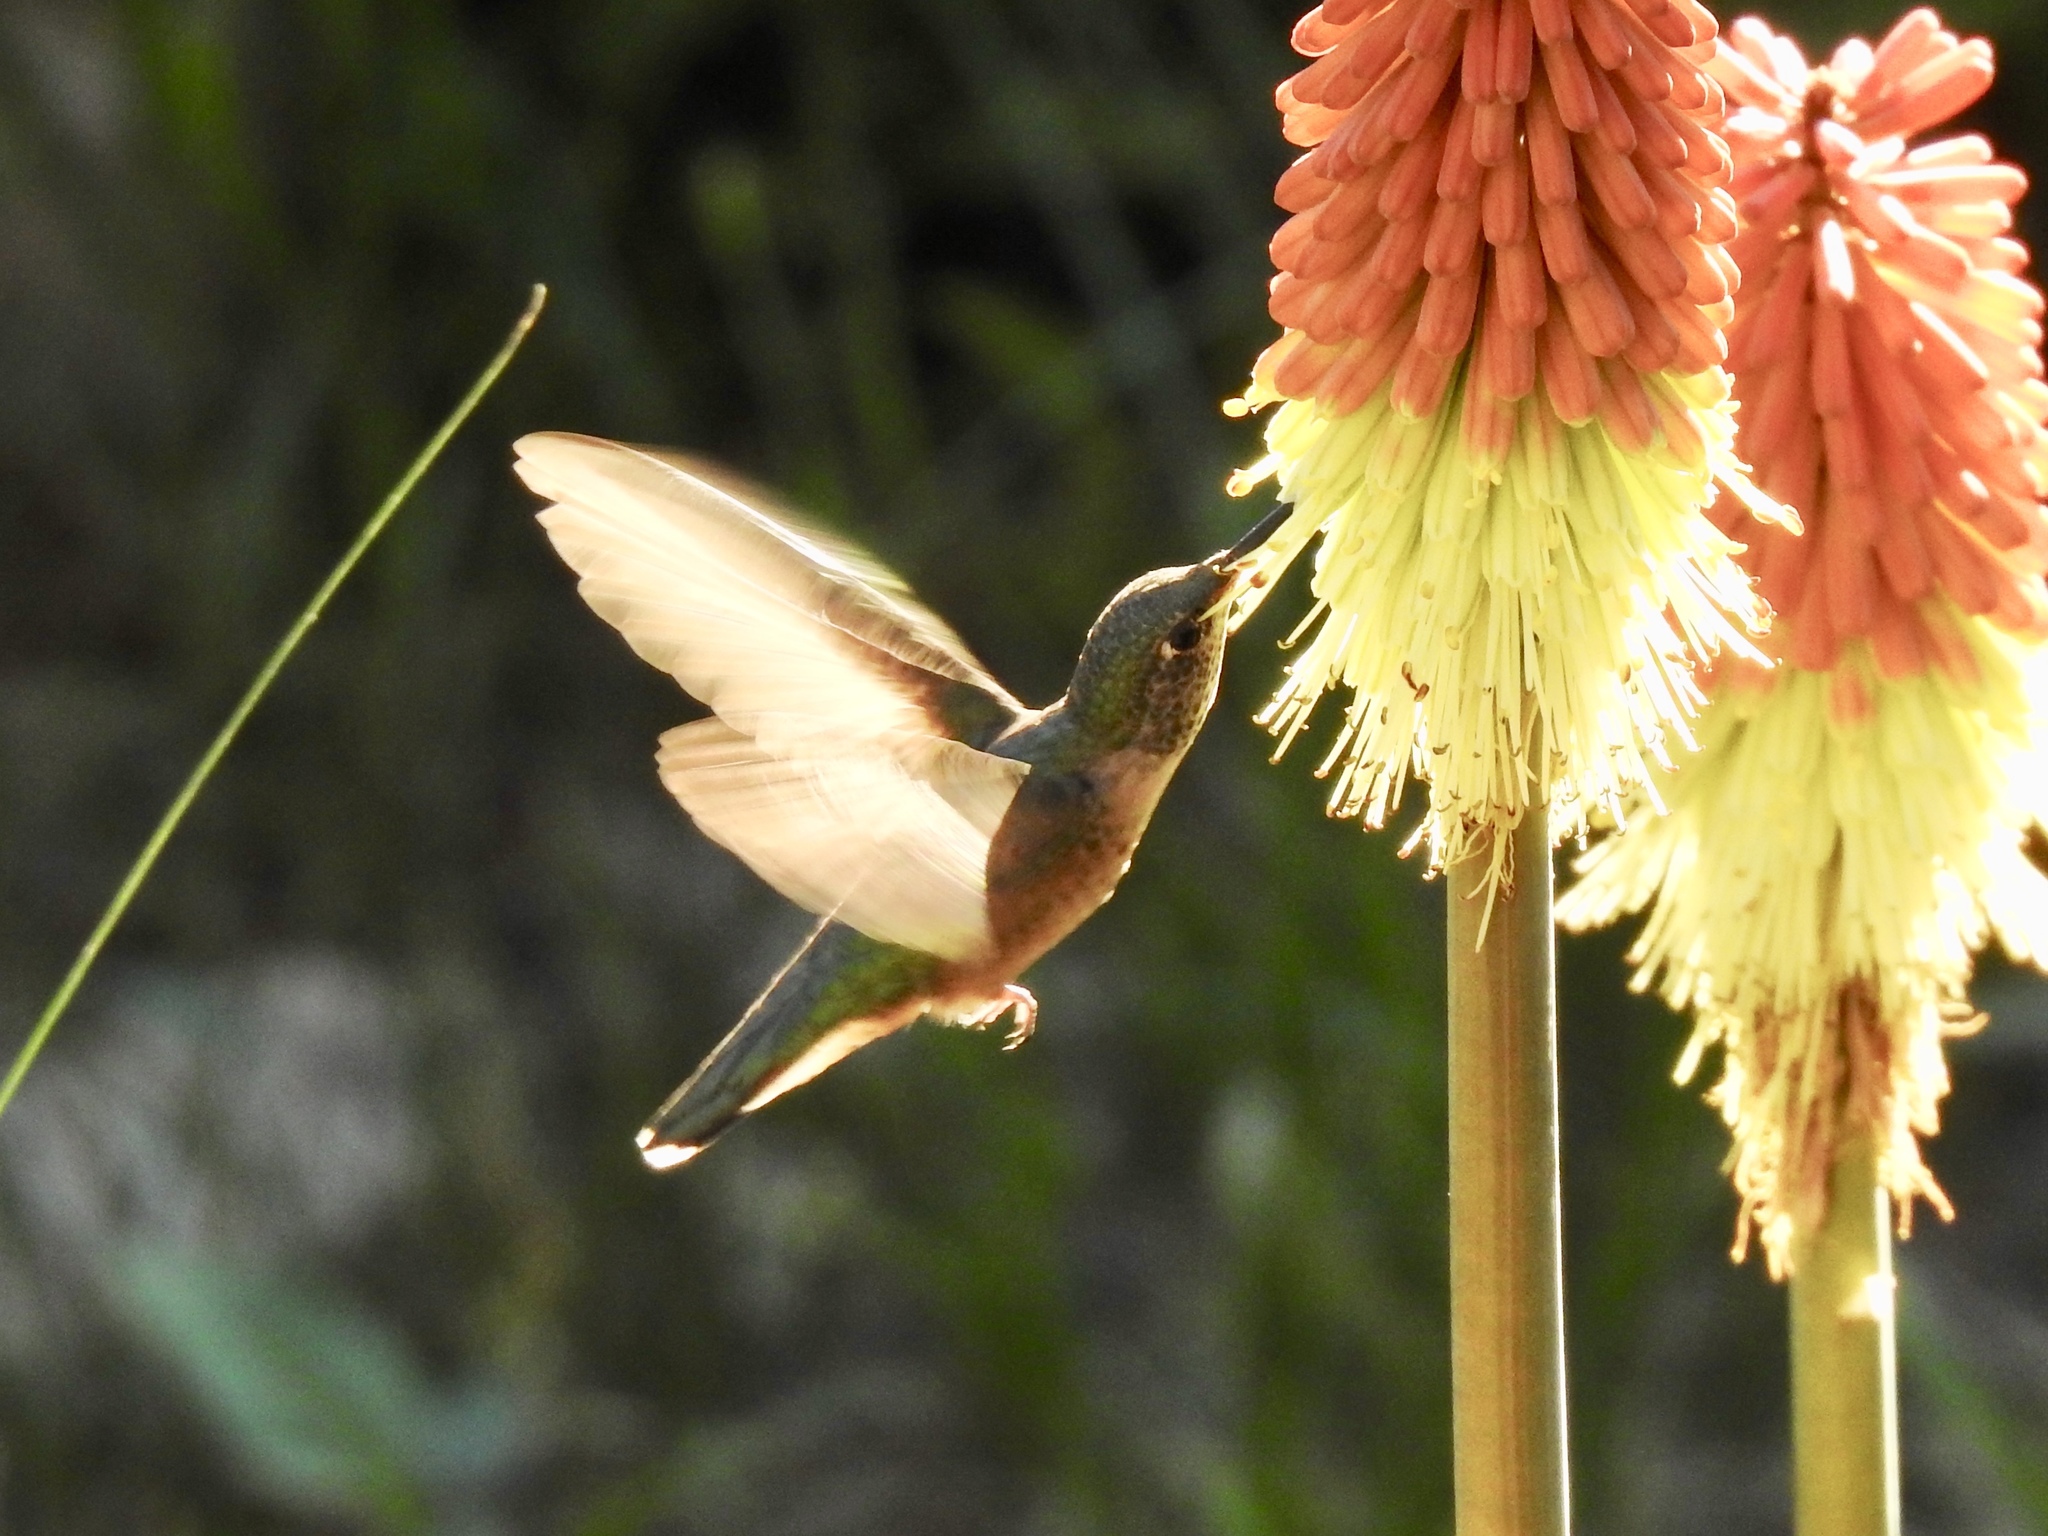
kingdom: Animalia
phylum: Chordata
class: Aves
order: Apodiformes
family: Trochilidae
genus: Selasphorus
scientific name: Selasphorus platycercus
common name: Broad-tailed hummingbird
